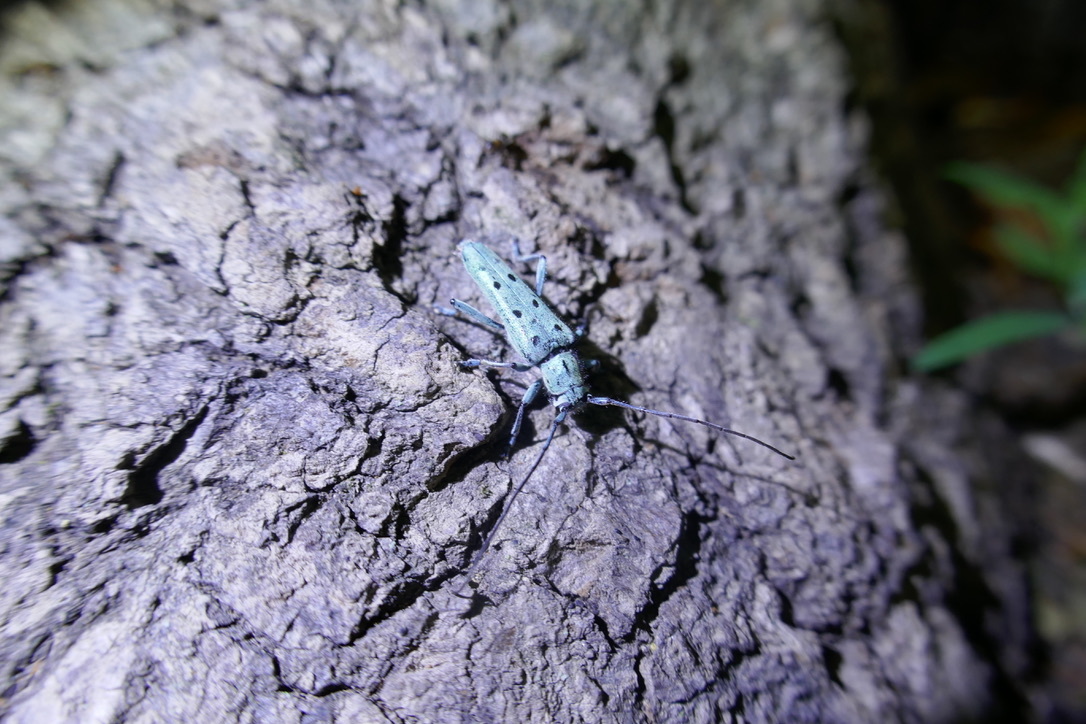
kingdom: Animalia
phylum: Arthropoda
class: Insecta
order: Coleoptera
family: Cerambycidae
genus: Saperda
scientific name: Saperda octopunctata
